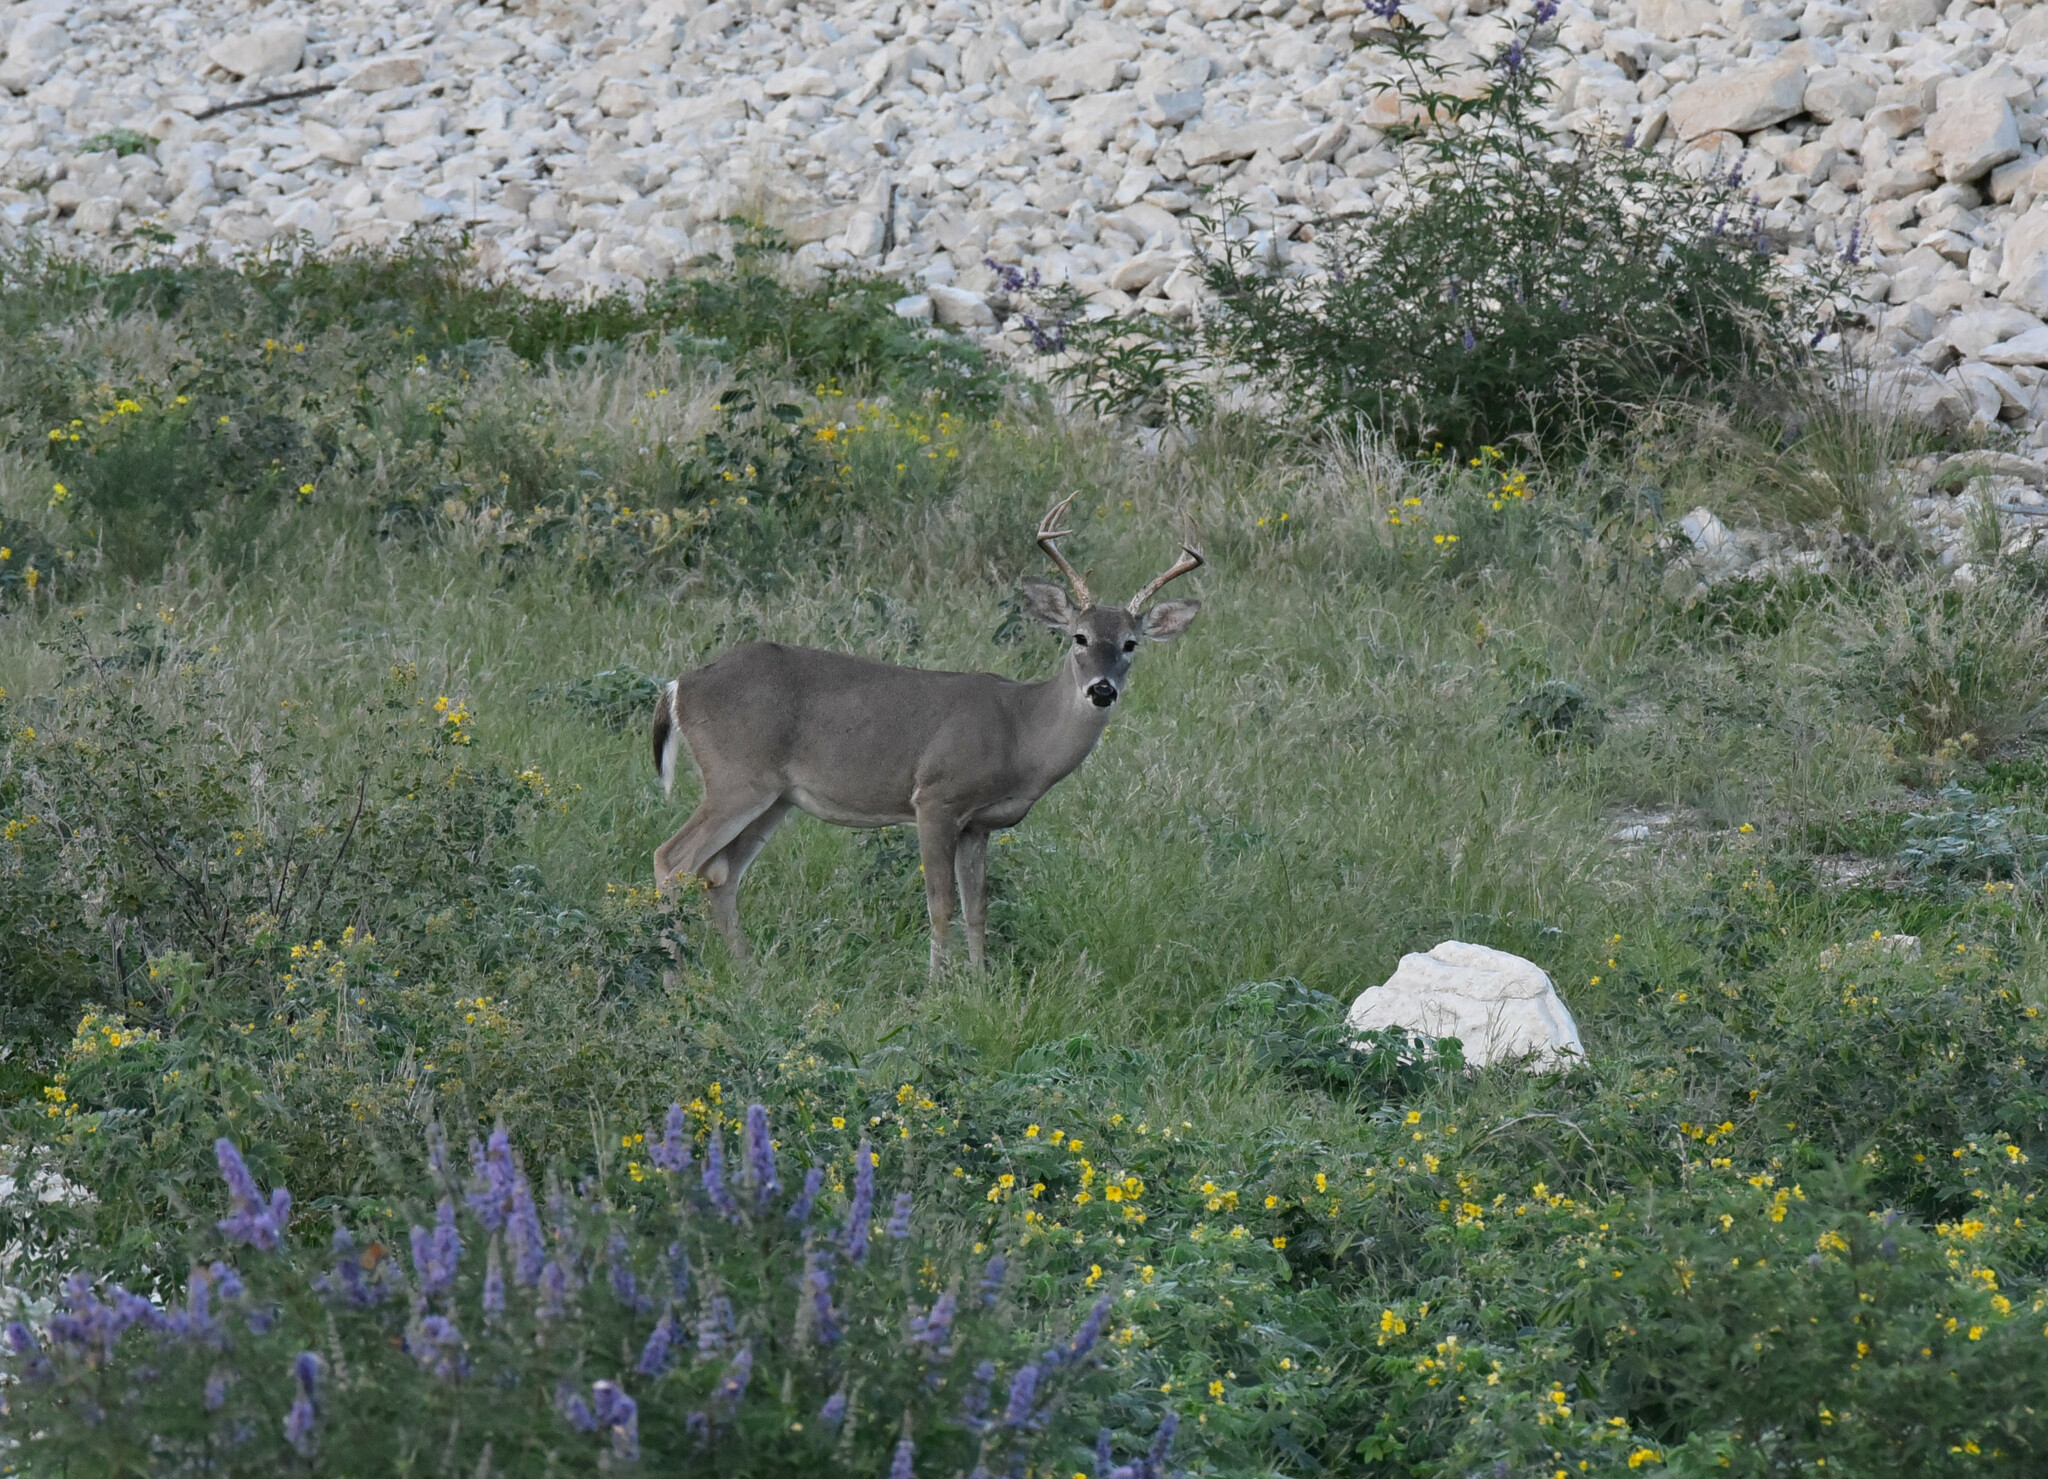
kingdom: Animalia
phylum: Chordata
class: Mammalia
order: Artiodactyla
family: Cervidae
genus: Odocoileus
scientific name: Odocoileus virginianus
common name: White-tailed deer
